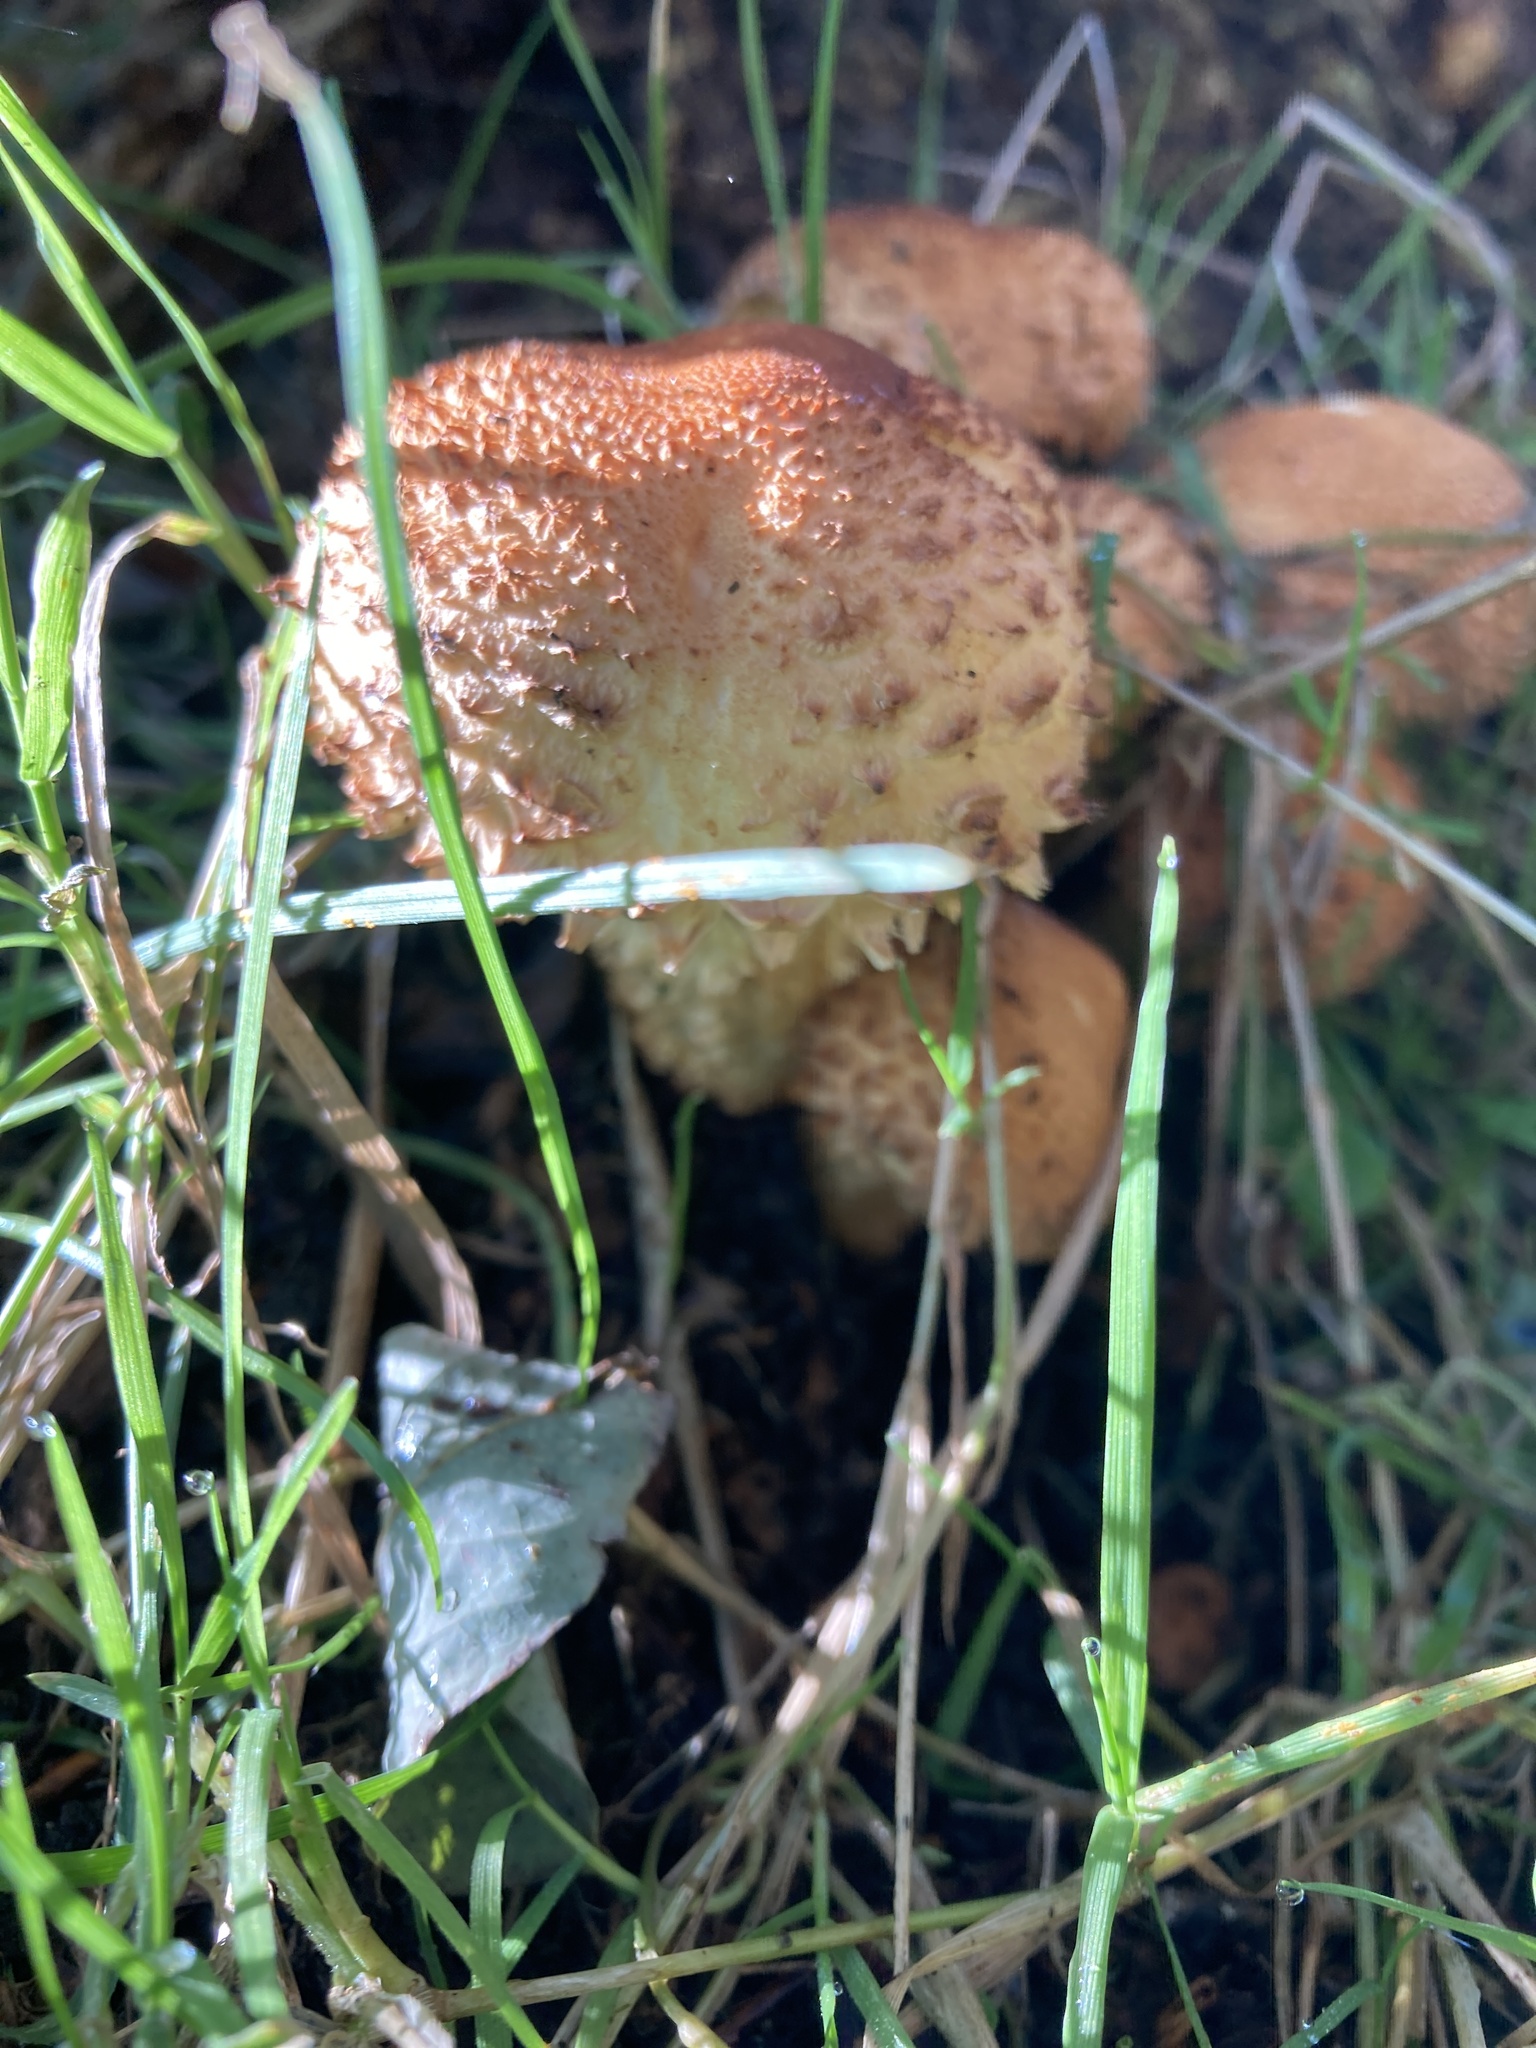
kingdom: Fungi
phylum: Basidiomycota
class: Agaricomycetes
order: Agaricales
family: Strophariaceae
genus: Pholiota
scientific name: Pholiota squarrosa
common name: Shaggy pholiota
